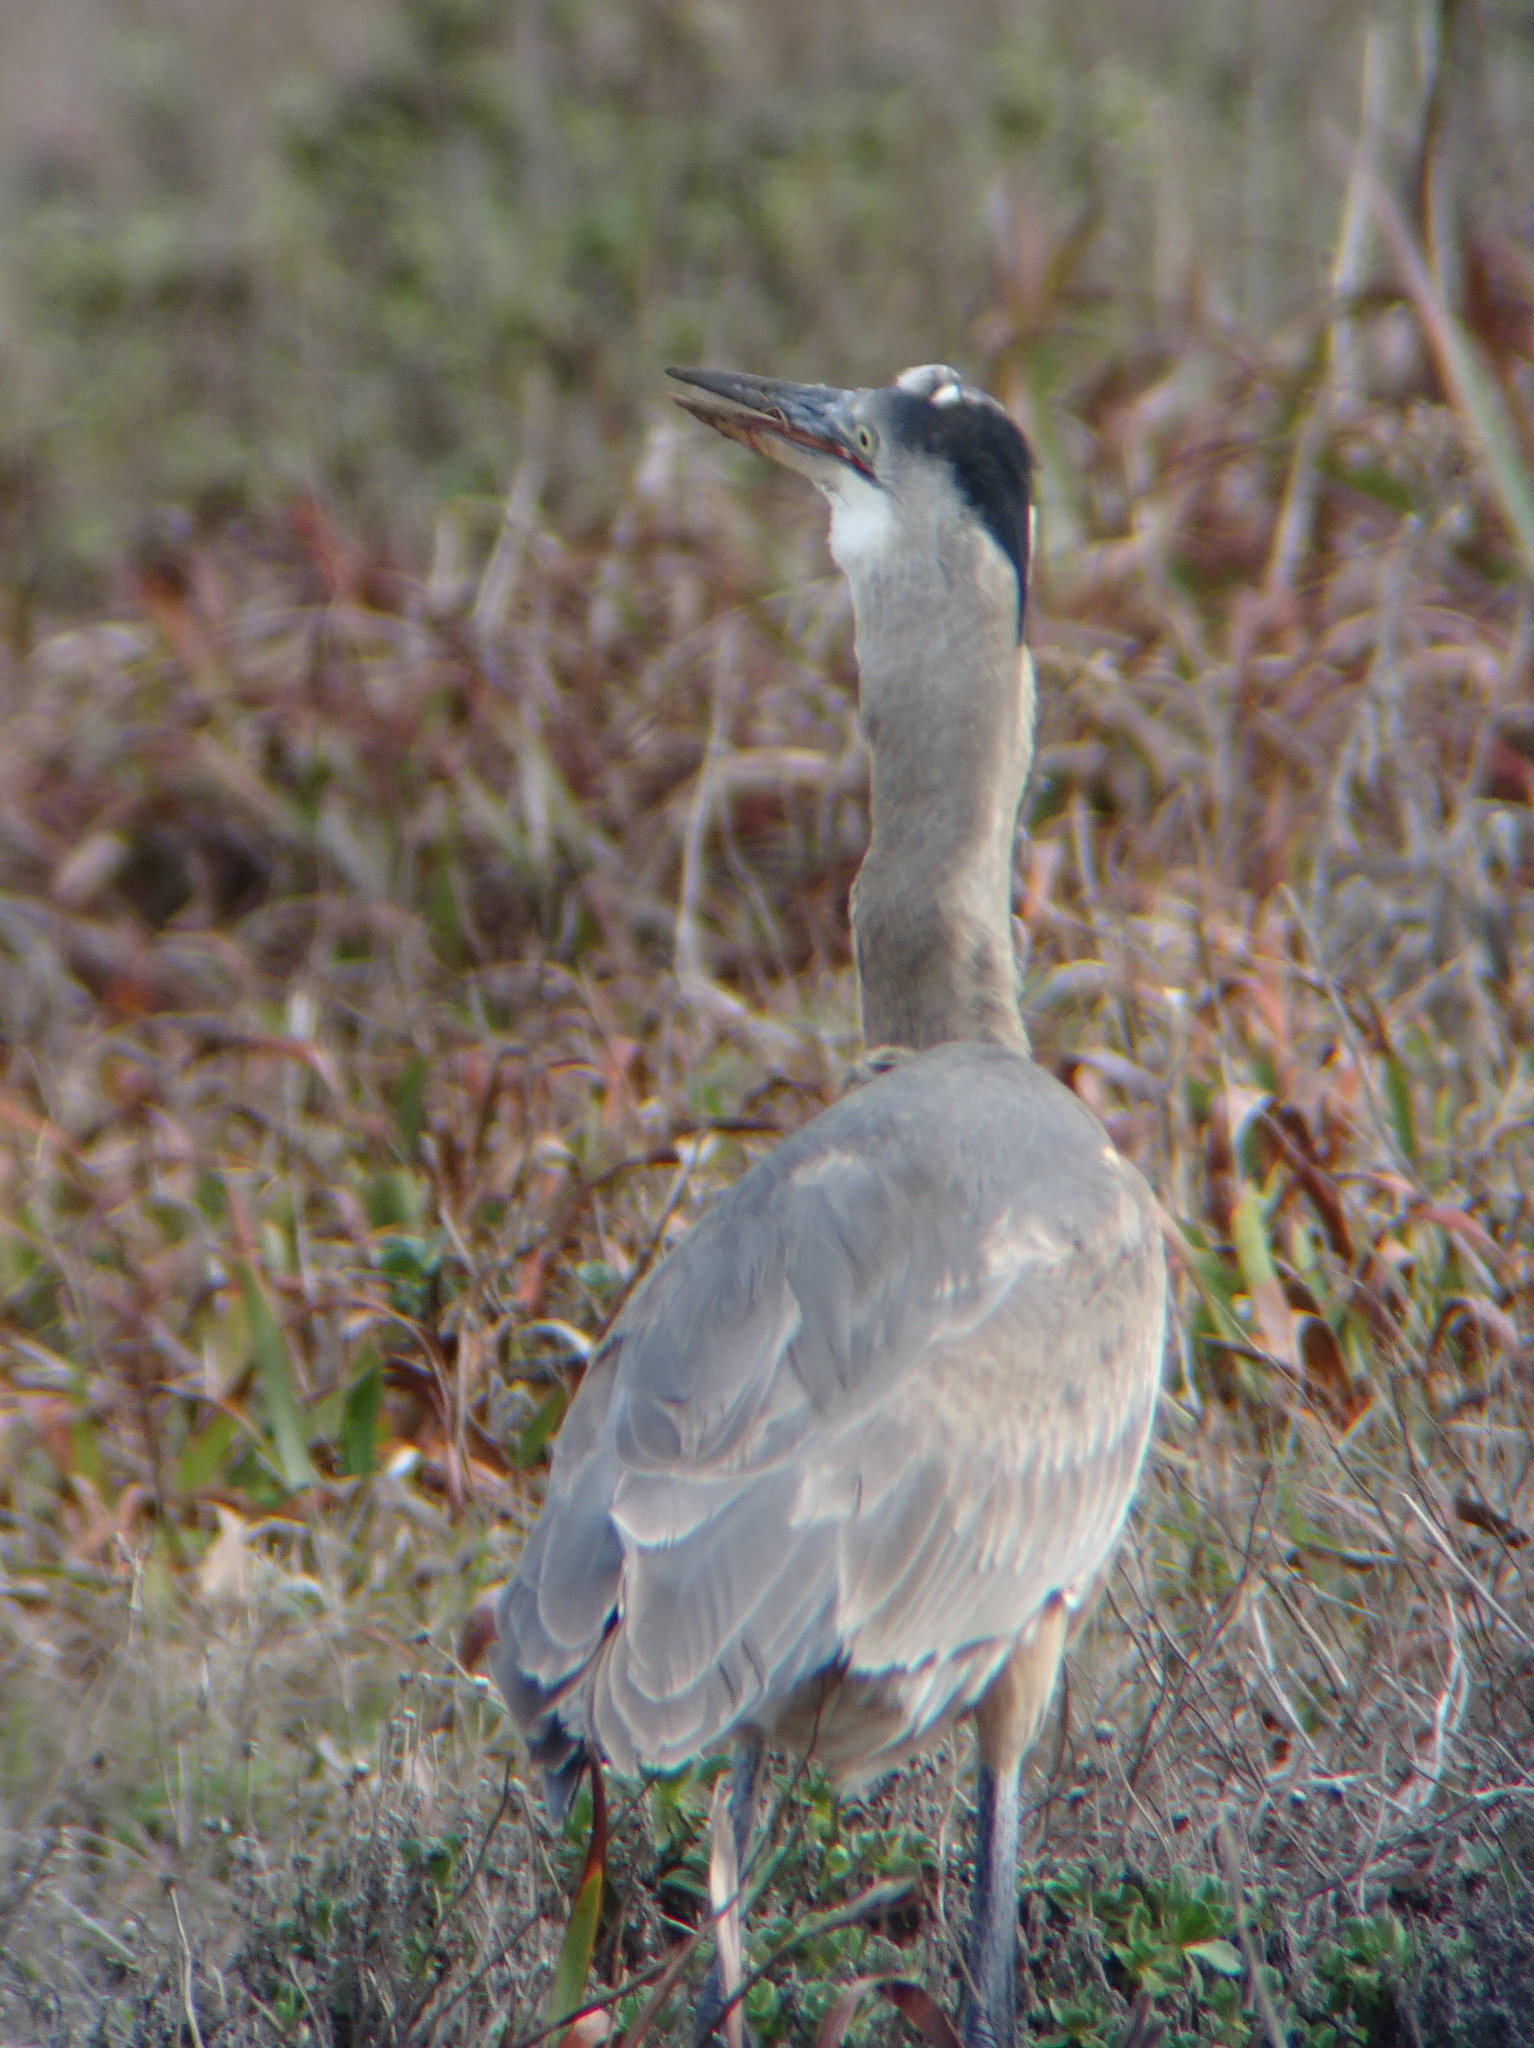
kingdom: Animalia
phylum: Chordata
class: Mammalia
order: Rodentia
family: Geomyidae
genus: Thomomys
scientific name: Thomomys bottae
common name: Botta's pocket gopher
